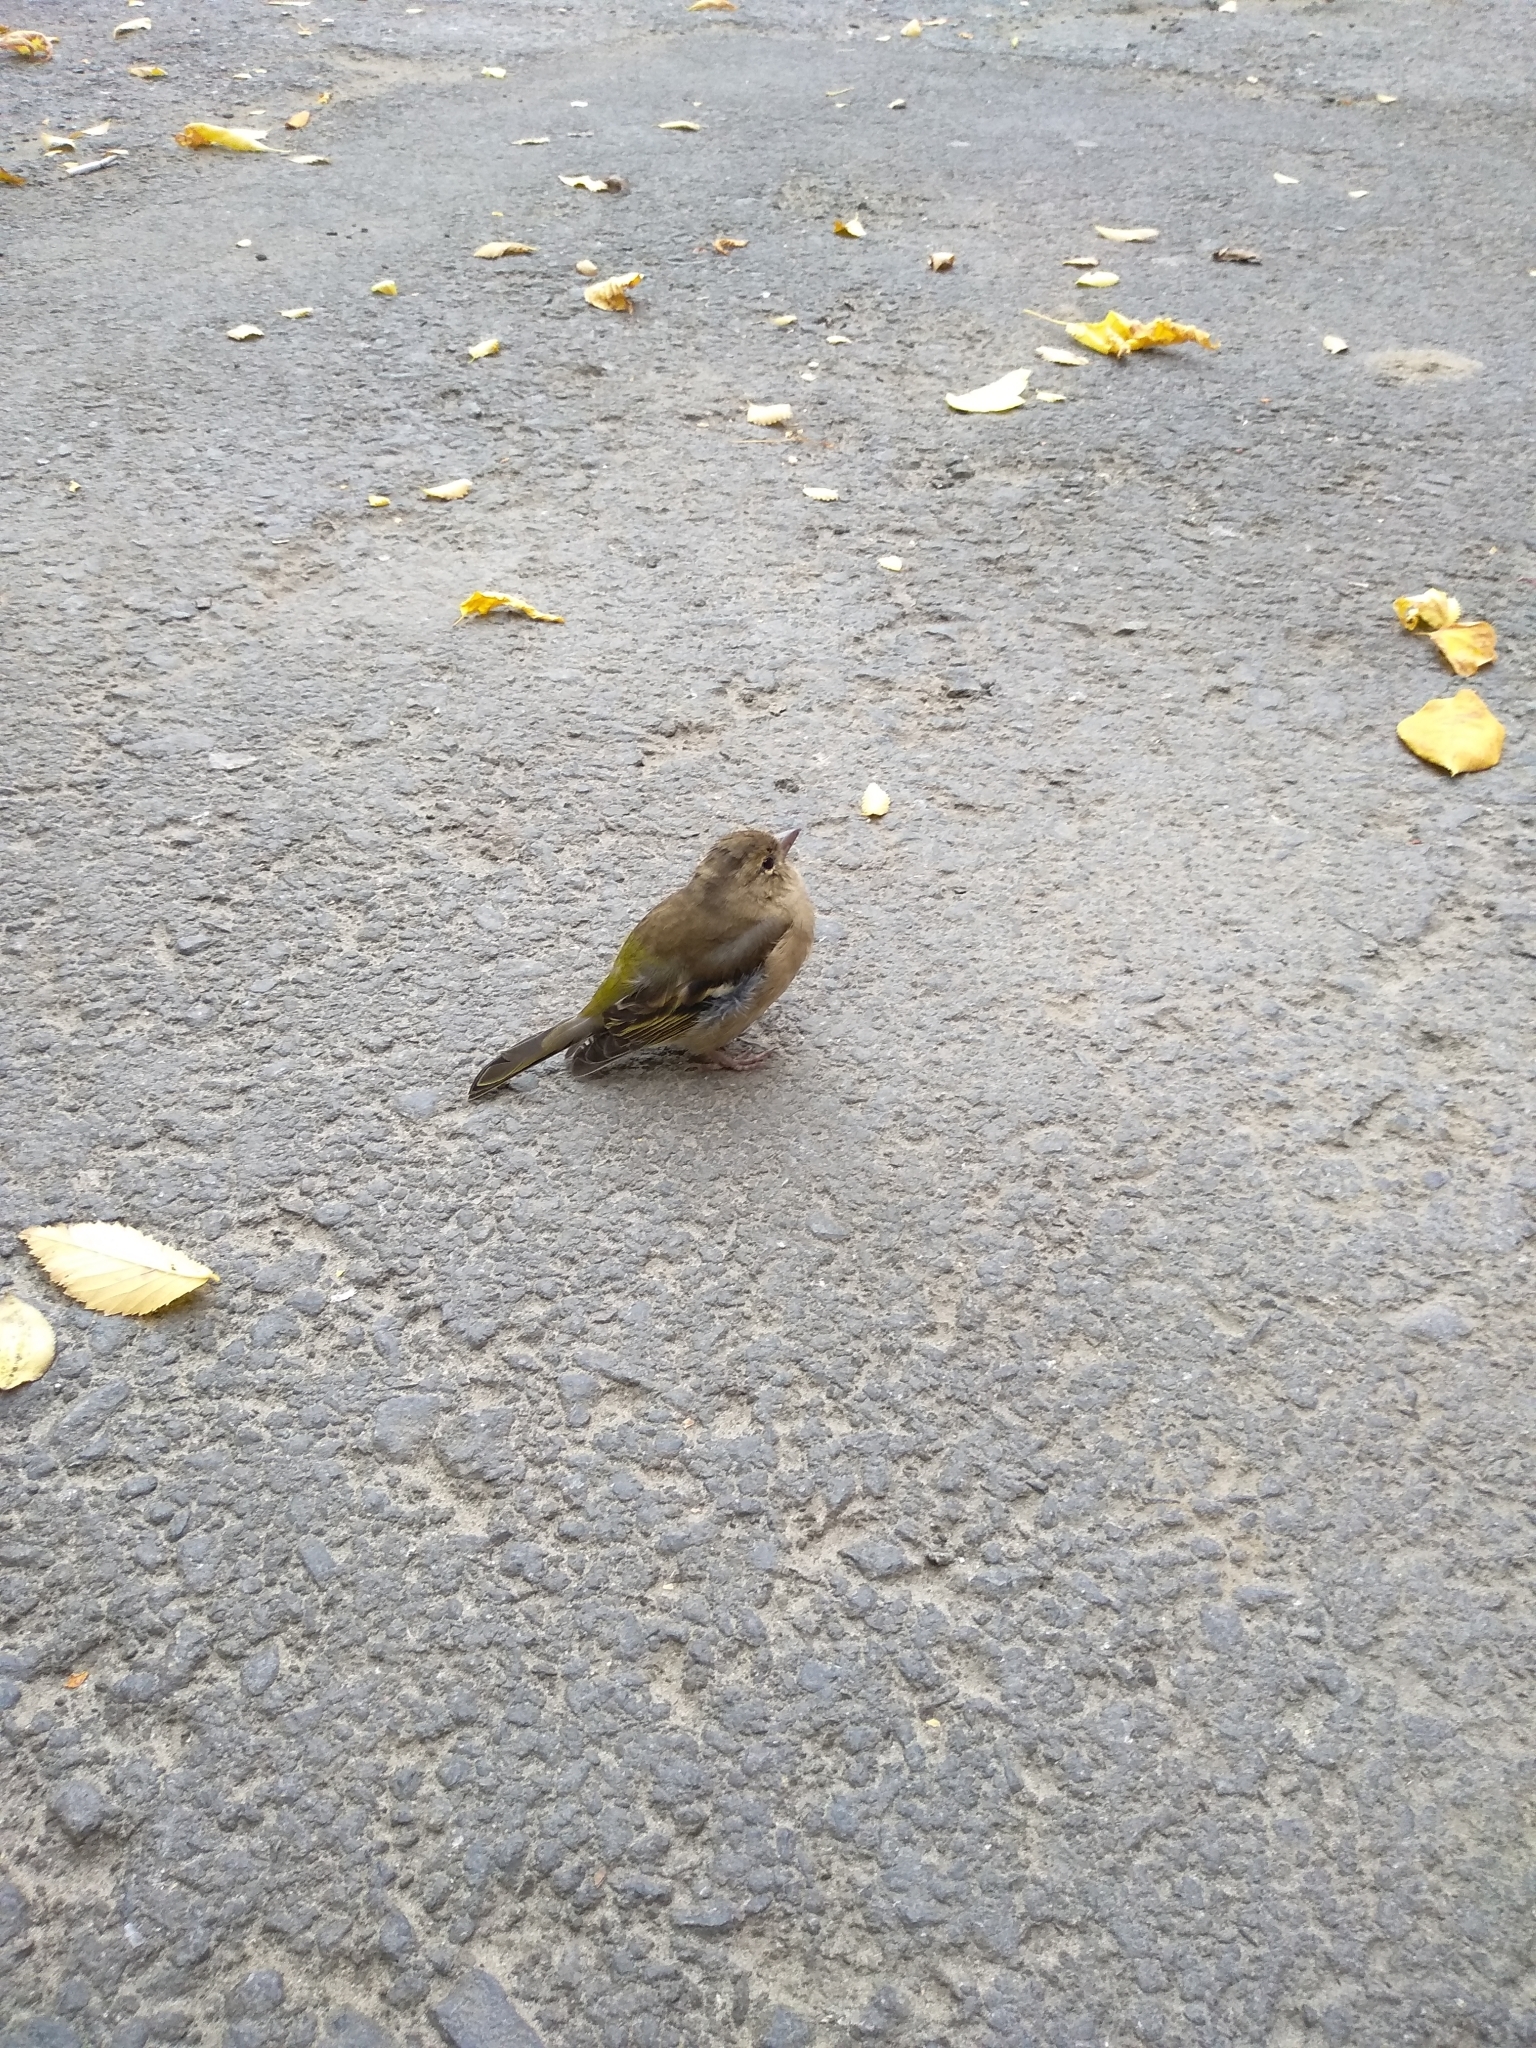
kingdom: Animalia
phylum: Chordata
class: Aves
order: Passeriformes
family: Fringillidae
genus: Fringilla
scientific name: Fringilla coelebs
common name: Common chaffinch
